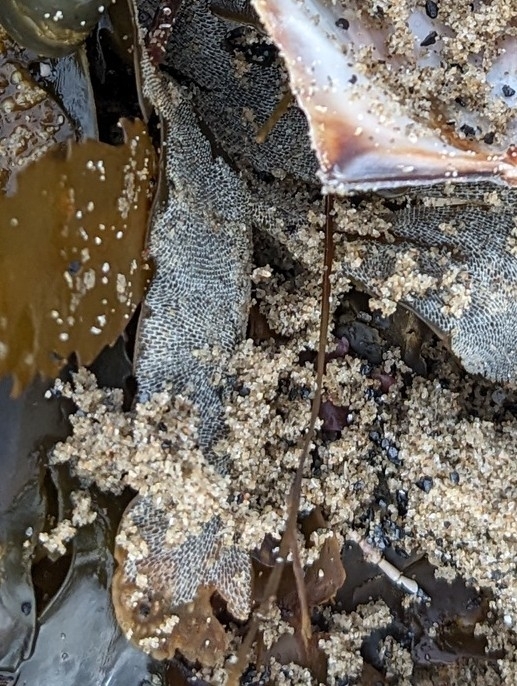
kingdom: Animalia
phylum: Bryozoa
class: Gymnolaemata
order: Cheilostomatida
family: Membraniporidae
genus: Membranipora
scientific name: Membranipora membranacea
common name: Sea mat
